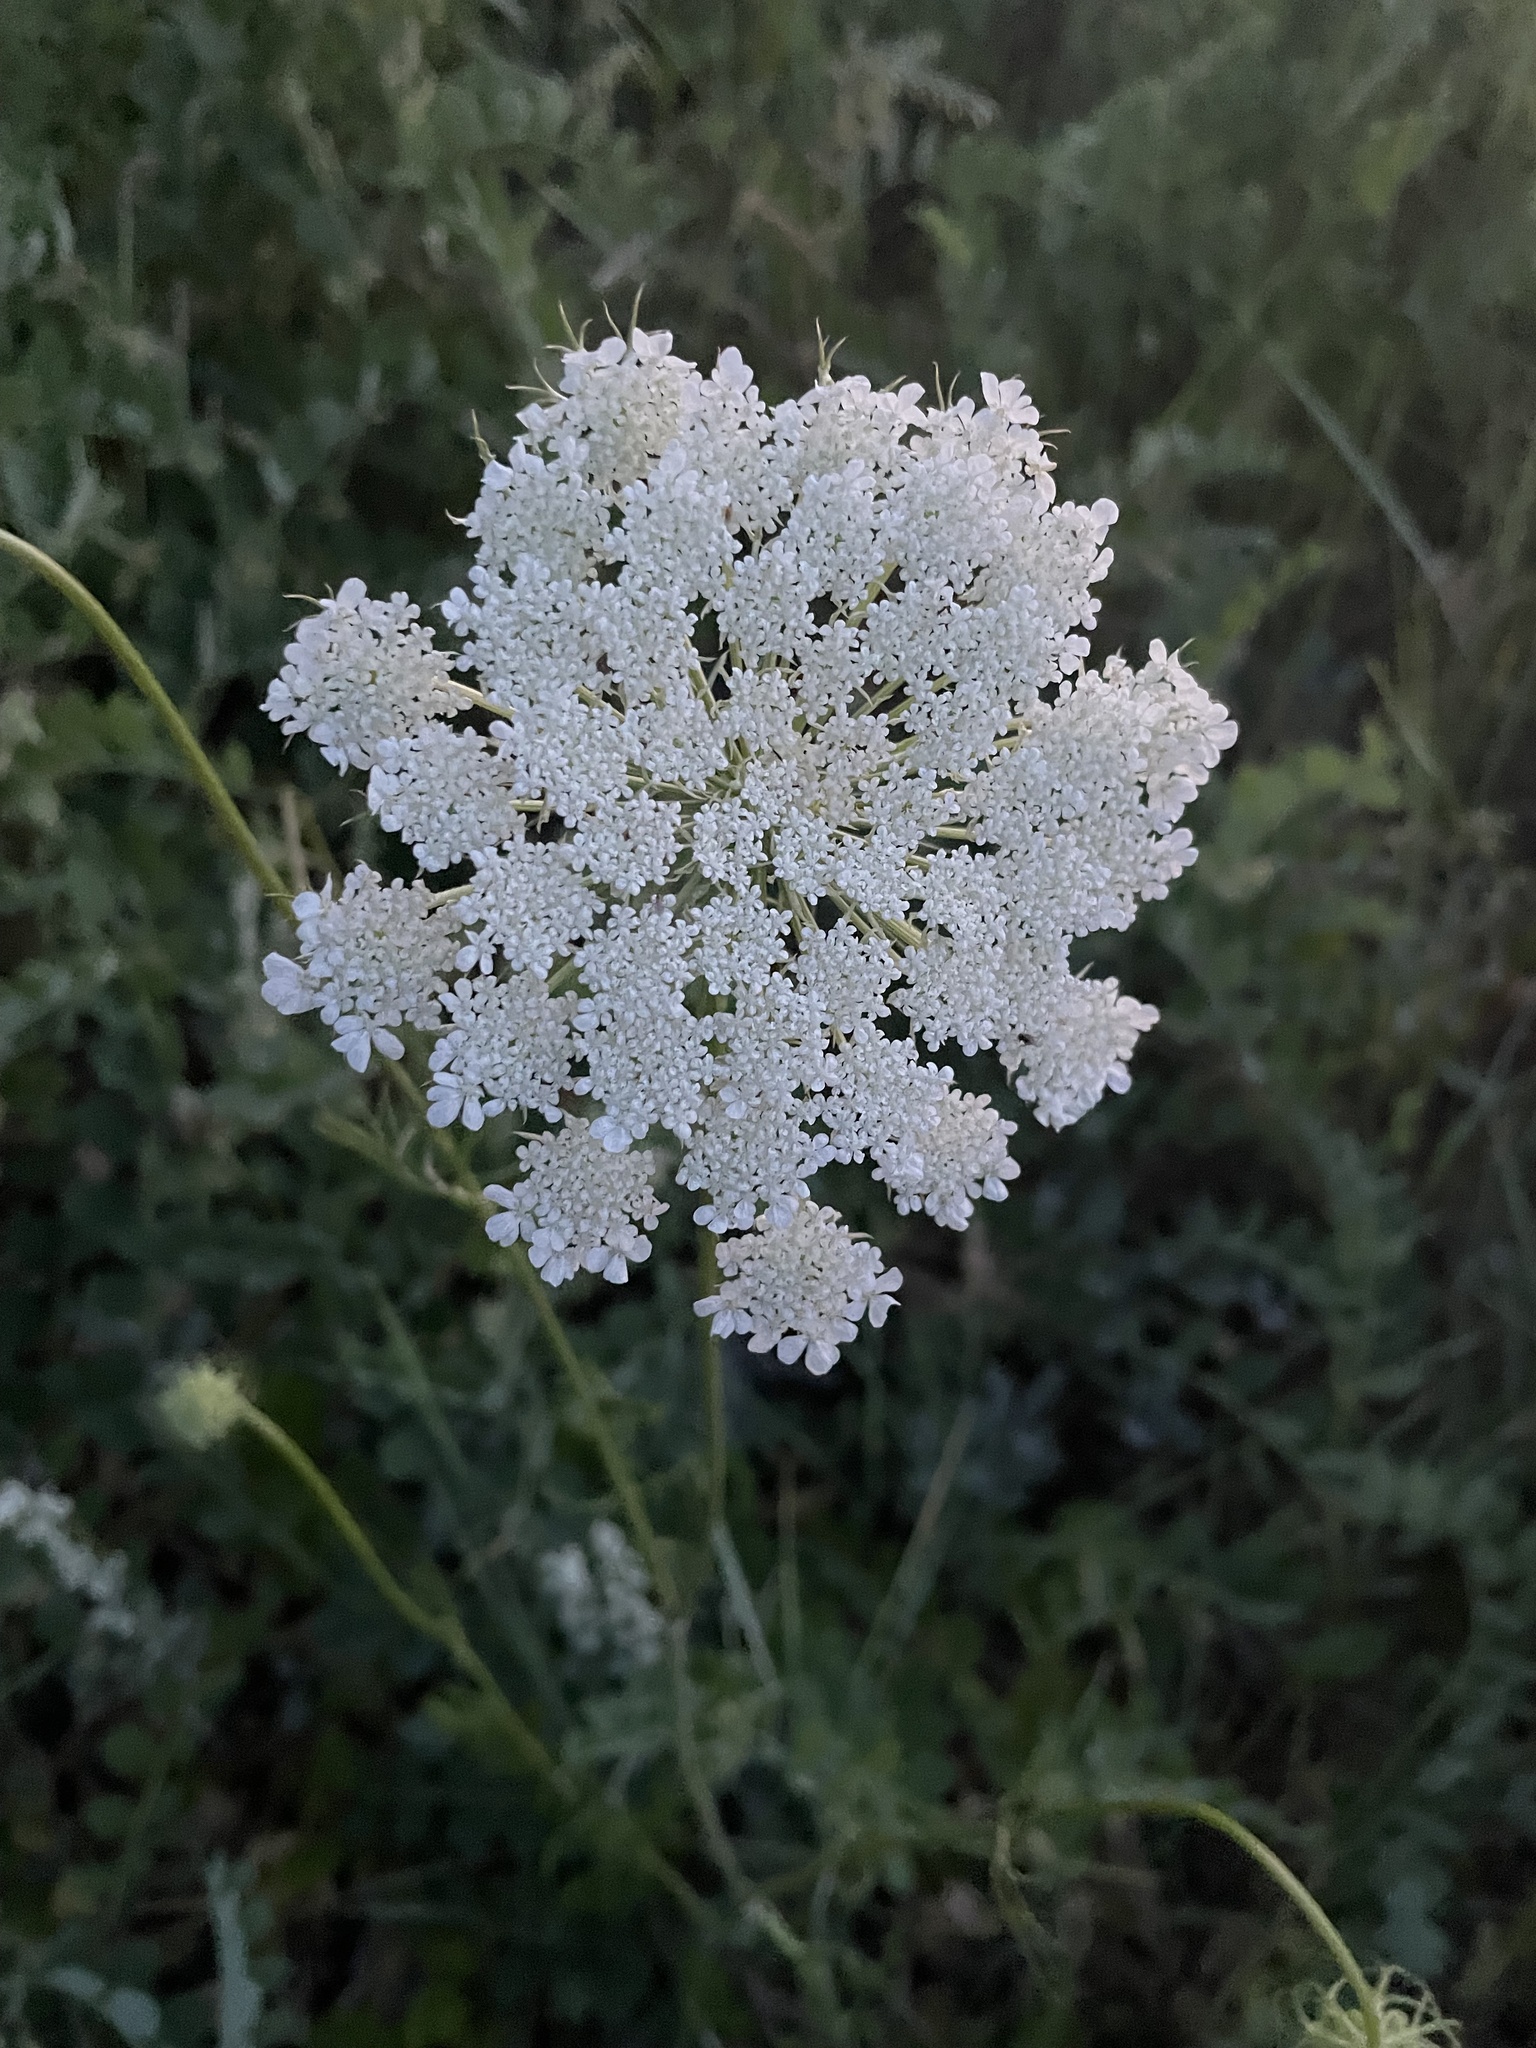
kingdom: Plantae
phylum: Tracheophyta
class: Magnoliopsida
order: Apiales
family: Apiaceae
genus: Daucus
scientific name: Daucus carota
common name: Wild carrot
